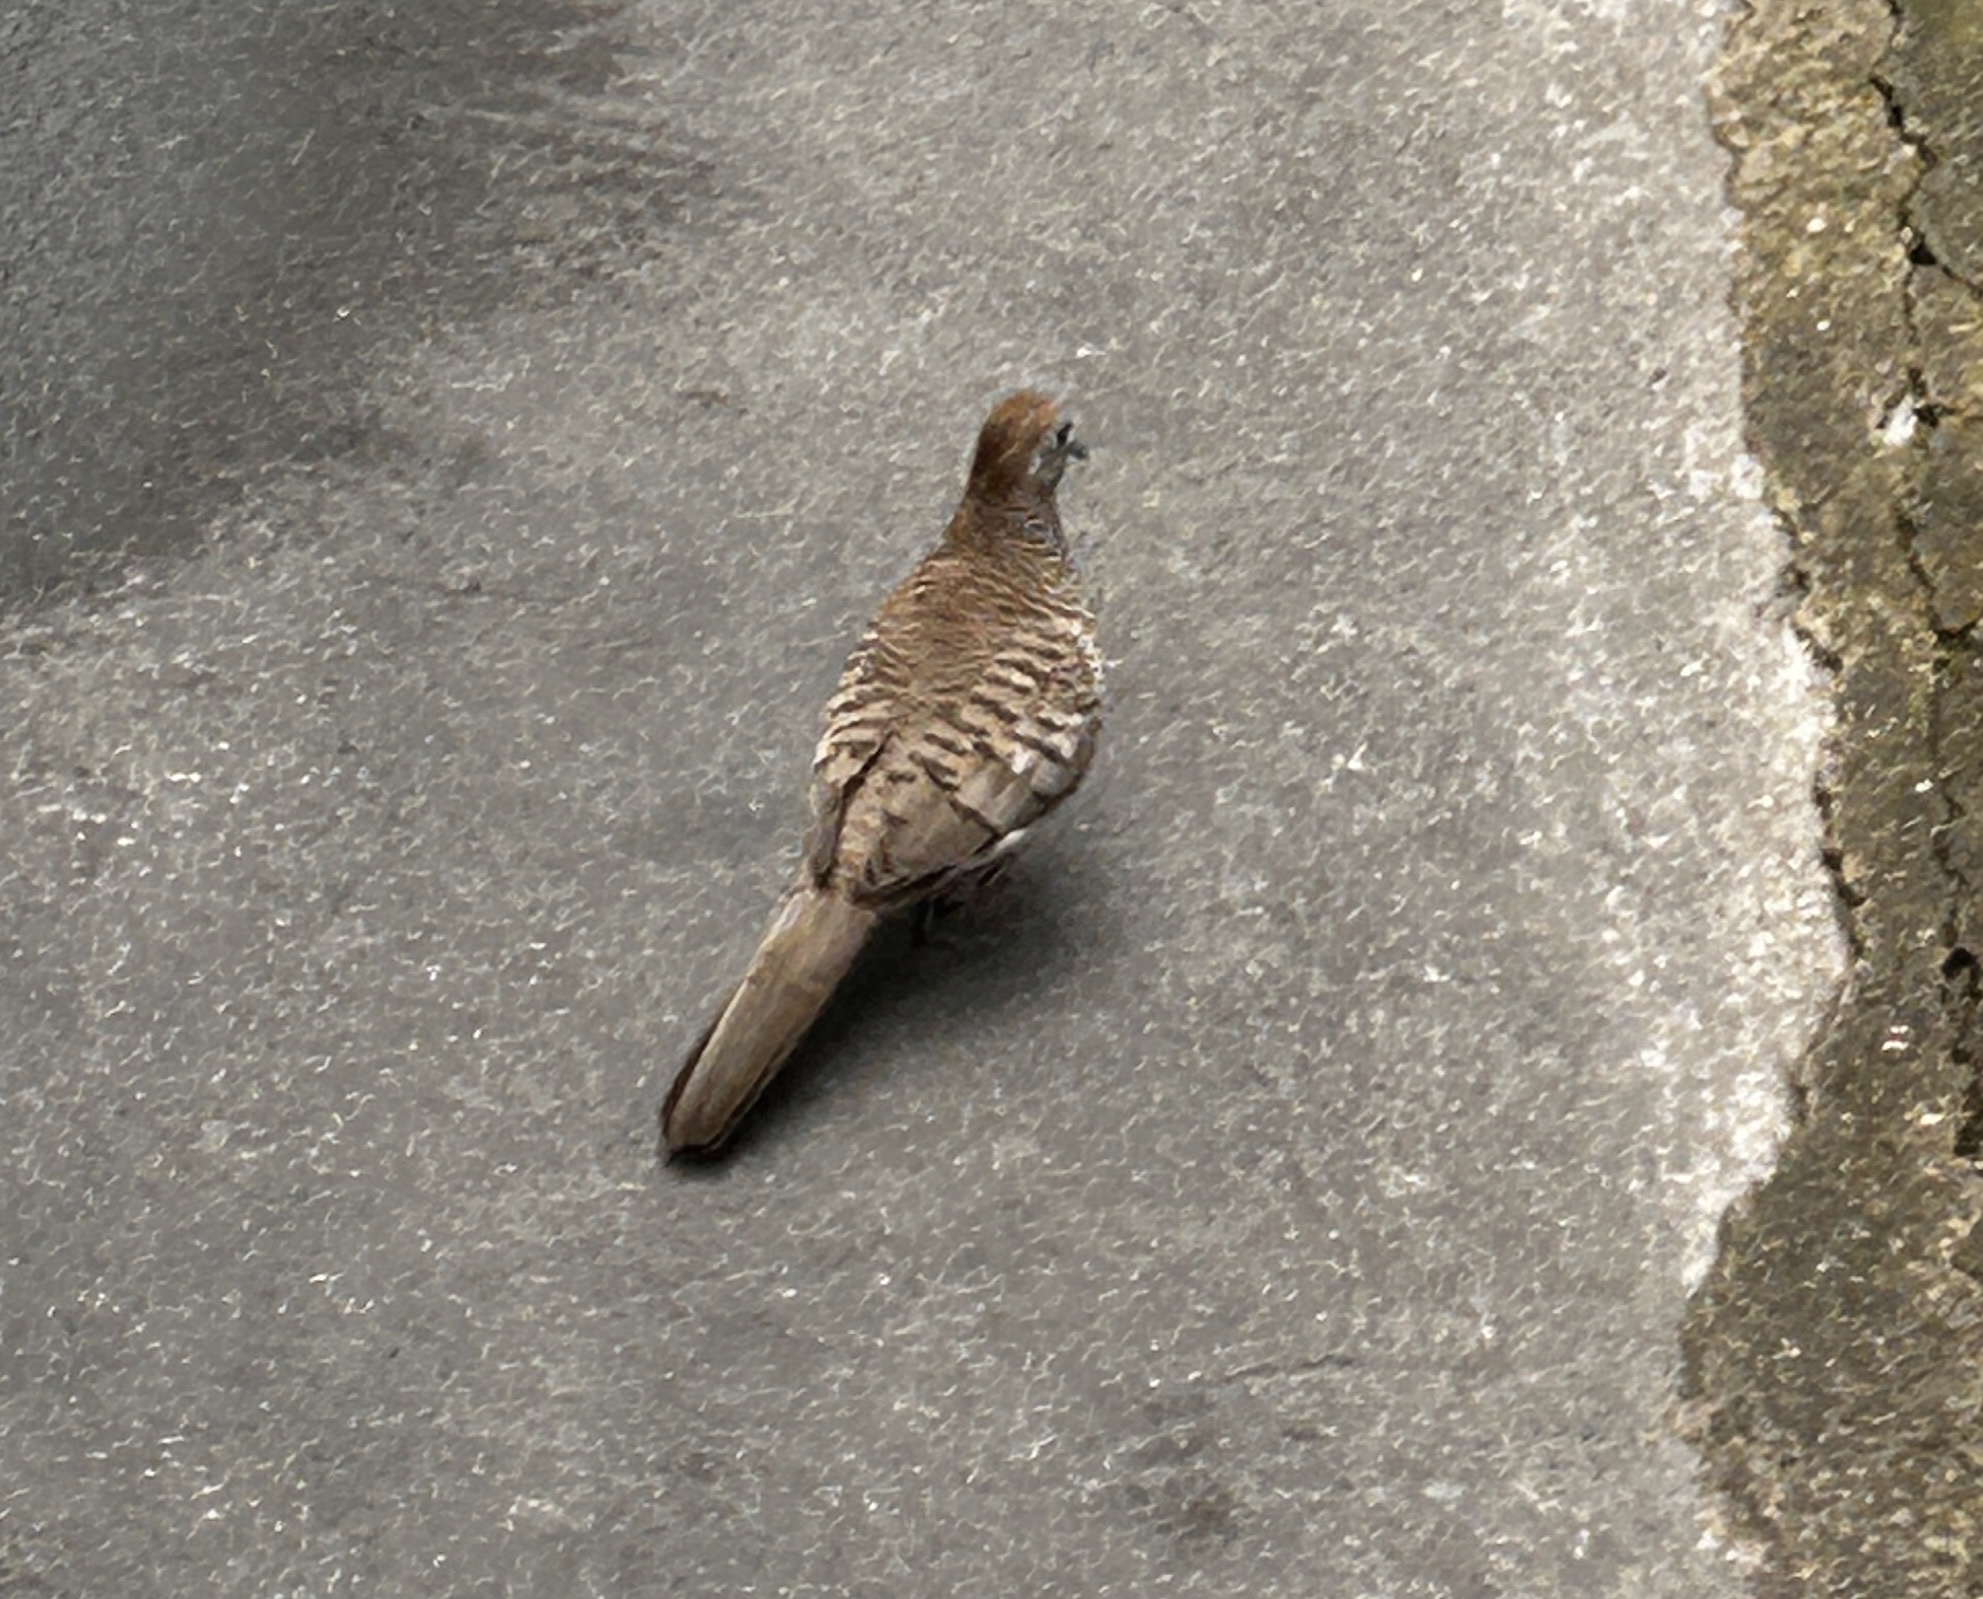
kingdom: Animalia
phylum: Chordata
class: Aves
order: Columbiformes
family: Columbidae
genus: Geopelia
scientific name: Geopelia striata
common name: Zebra dove
